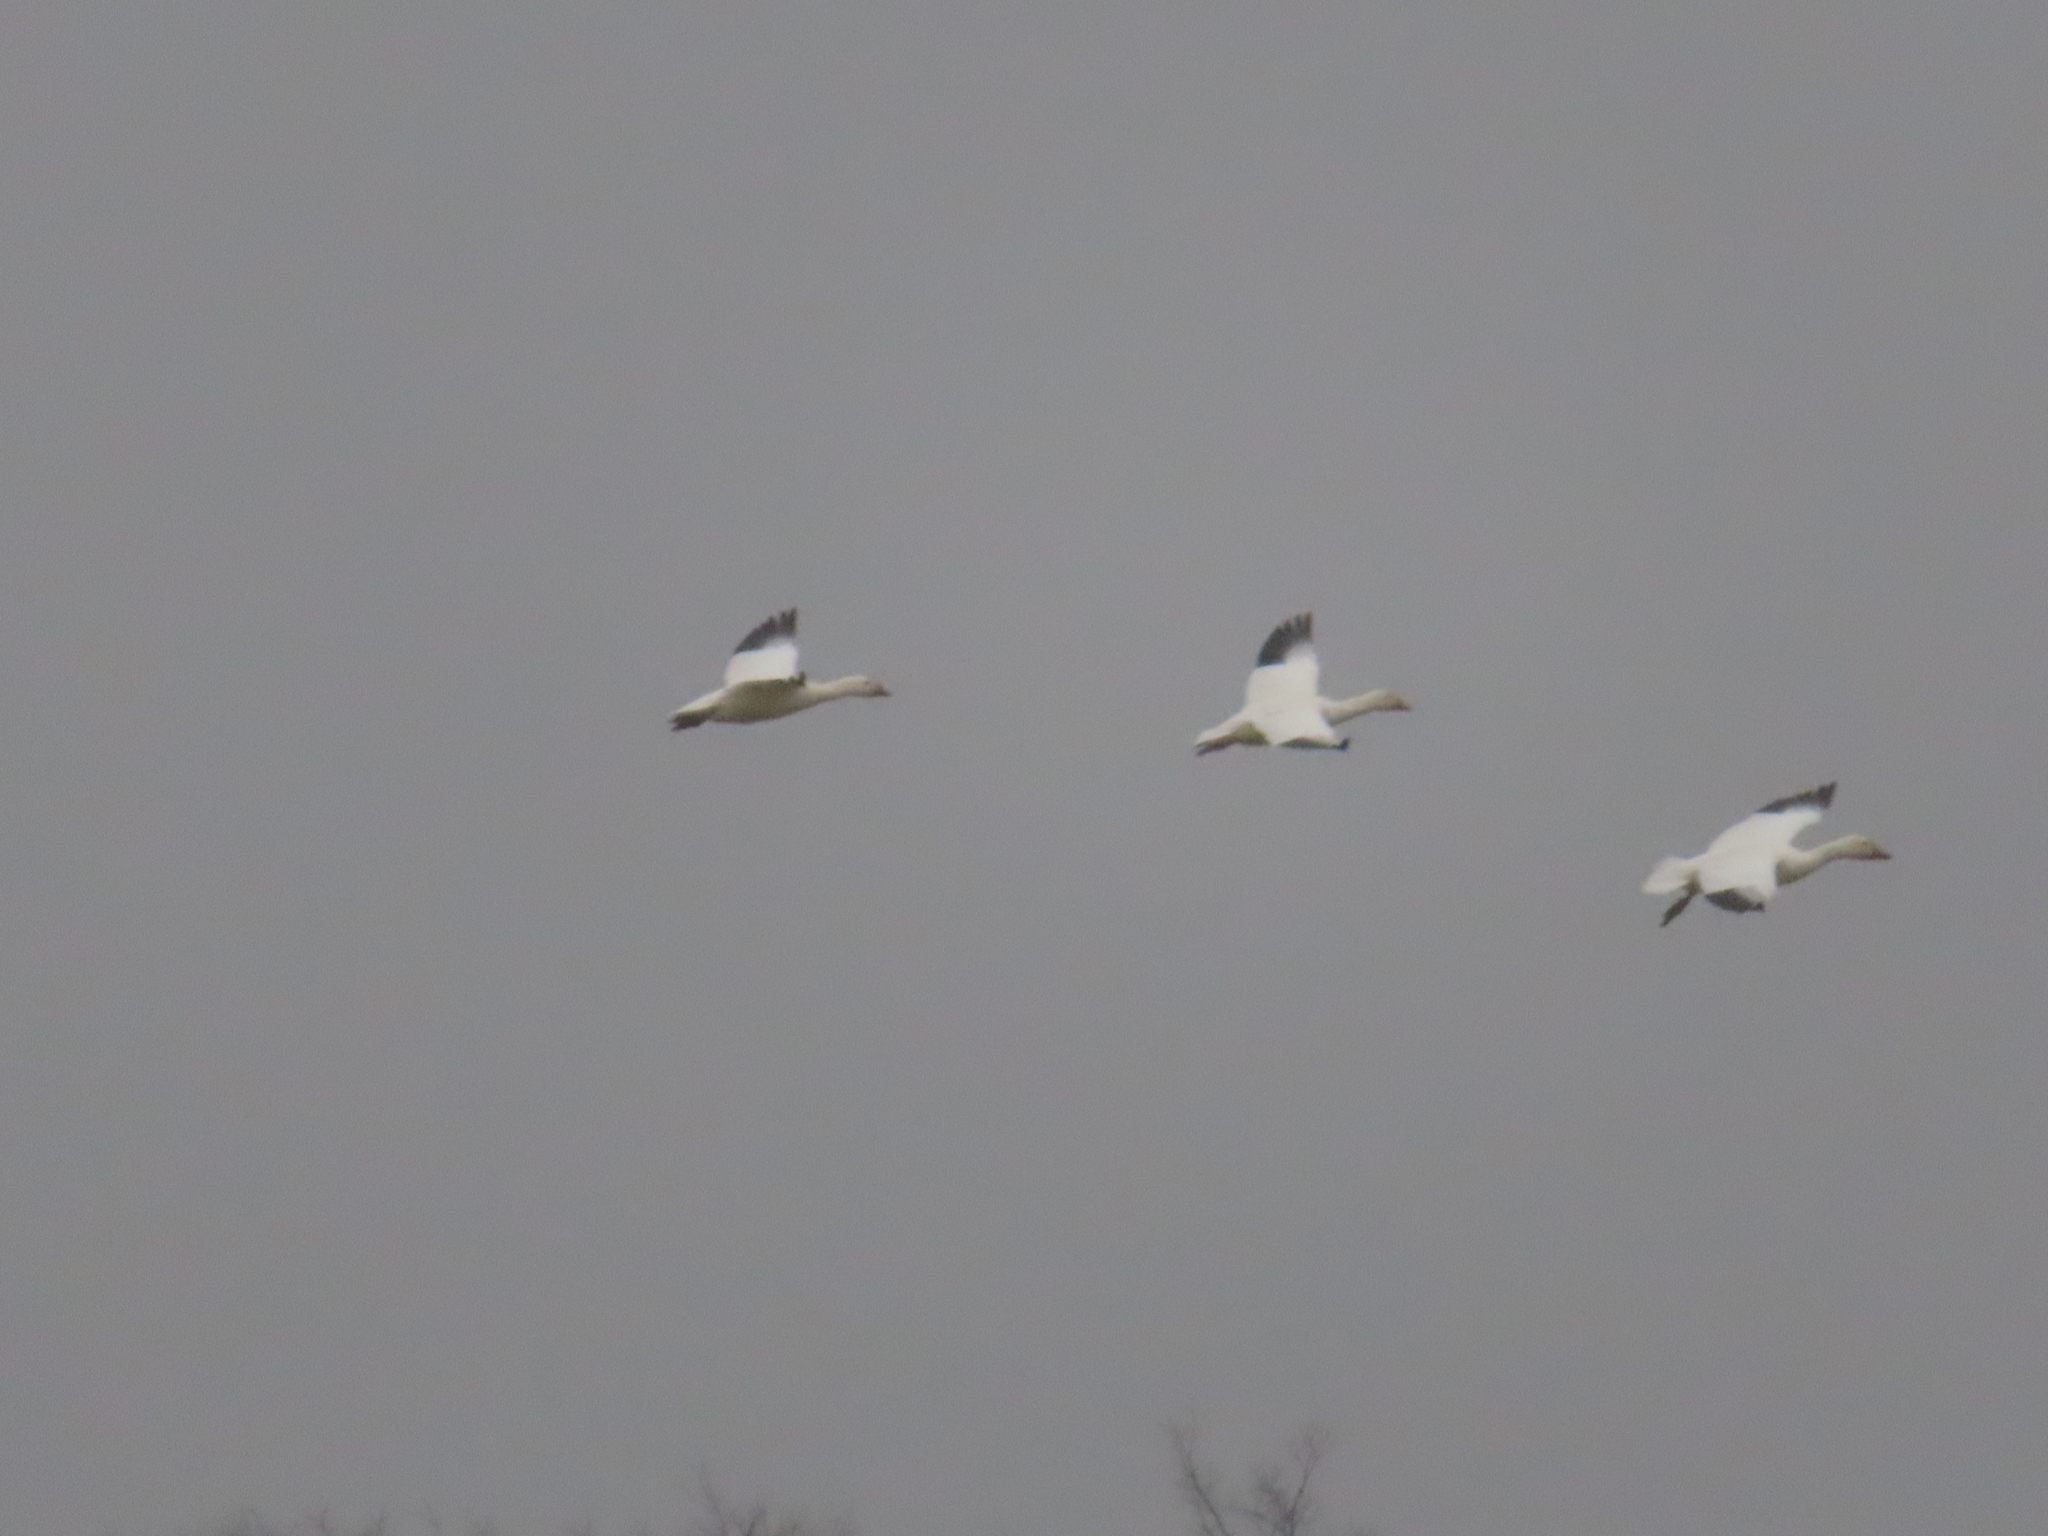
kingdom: Animalia
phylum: Chordata
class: Aves
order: Anseriformes
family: Anatidae
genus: Anser
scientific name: Anser caerulescens
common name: Snow goose
